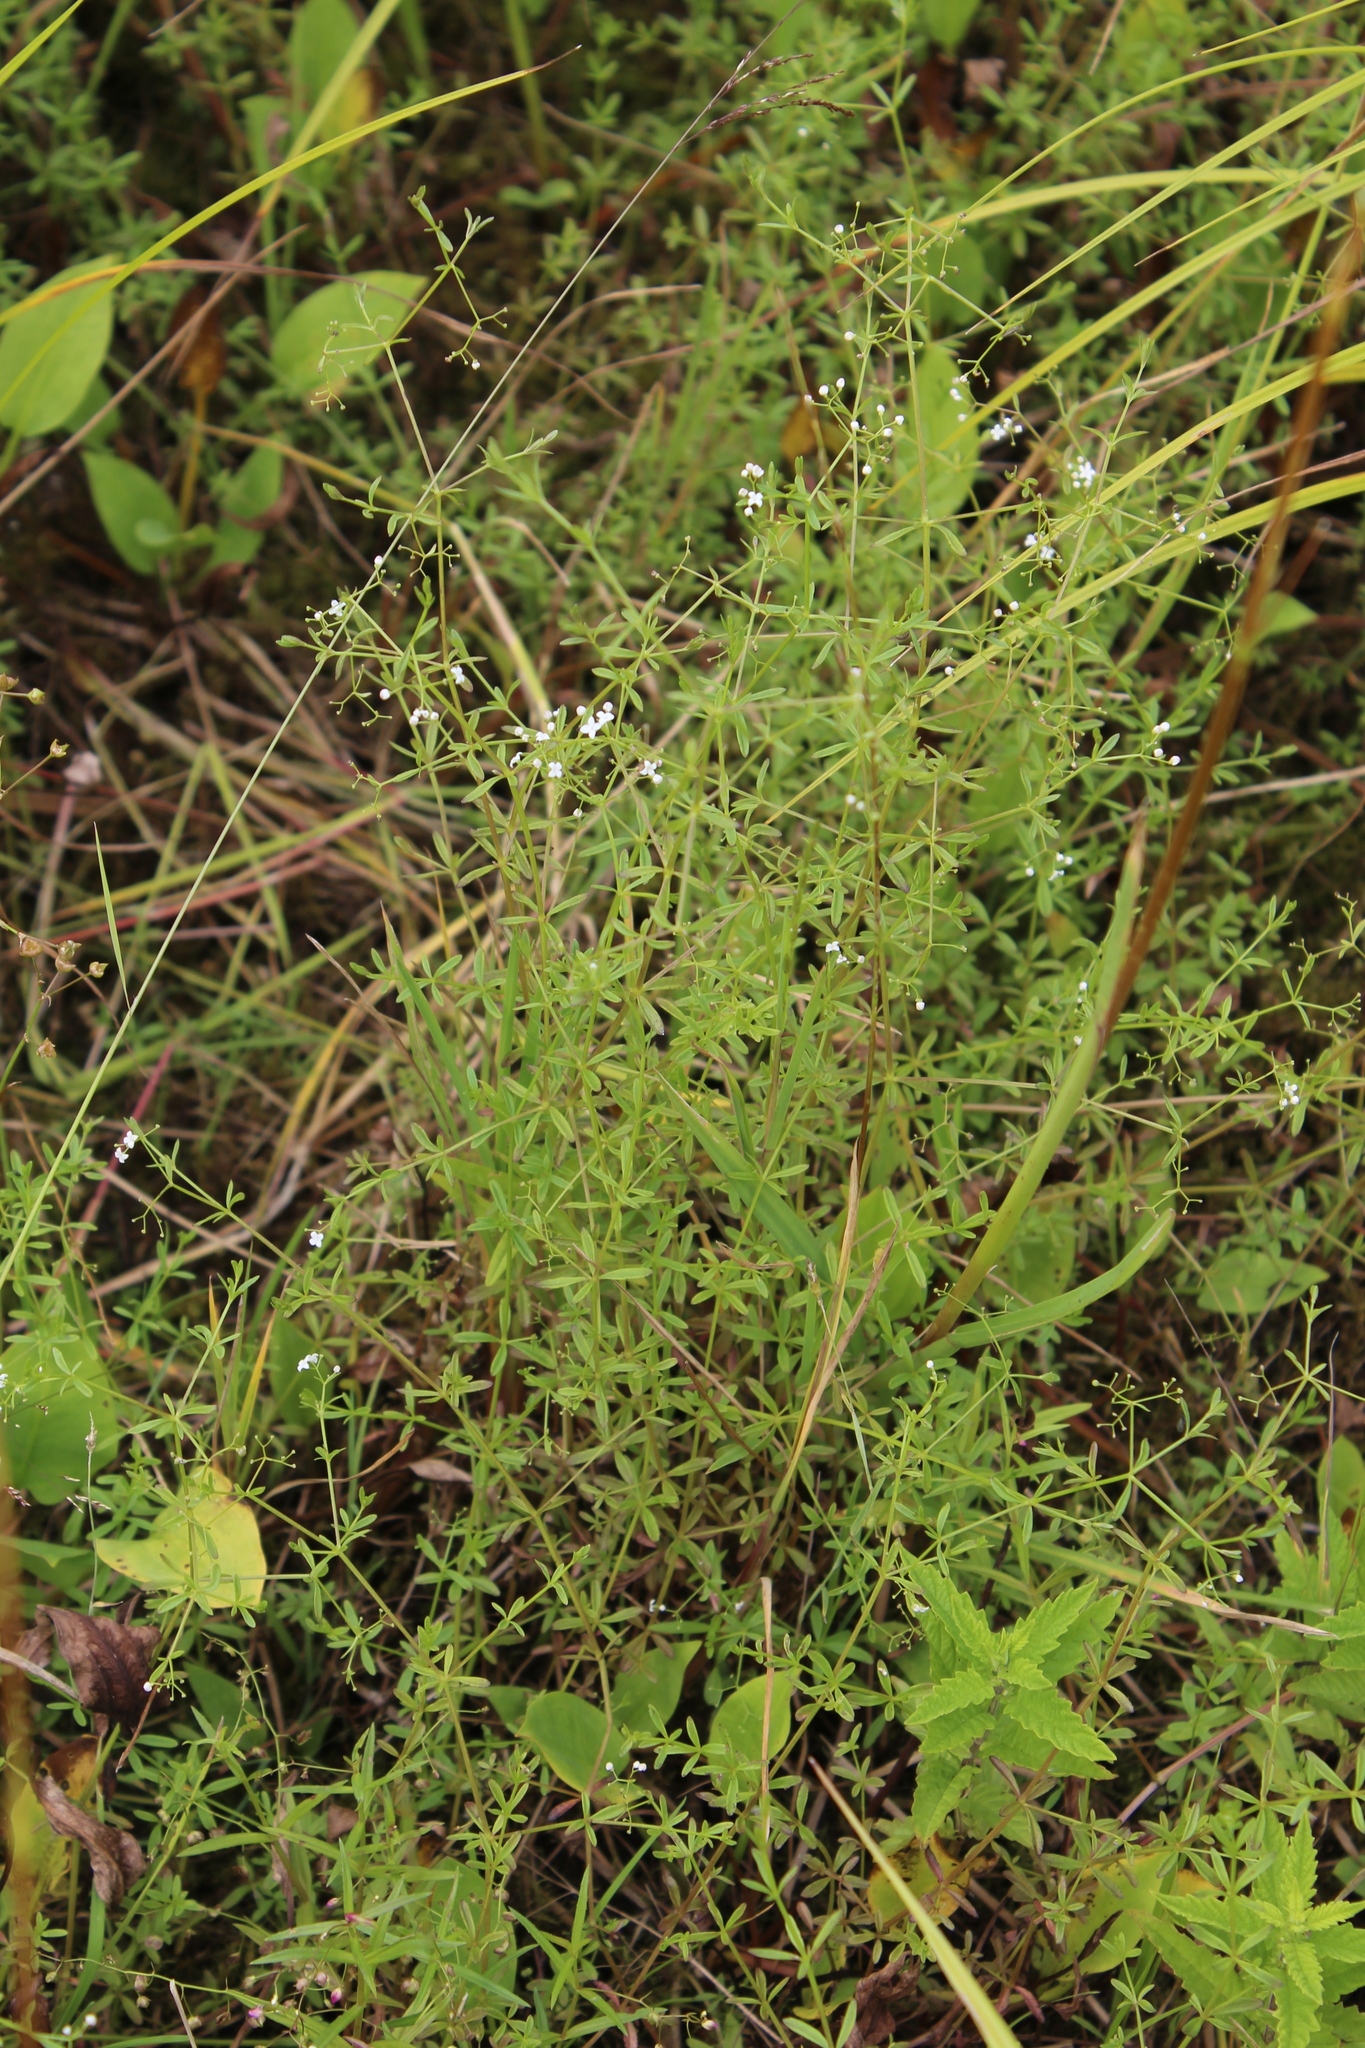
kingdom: Plantae
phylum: Tracheophyta
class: Magnoliopsida
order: Gentianales
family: Rubiaceae
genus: Galium
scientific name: Galium palustre
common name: Common marsh-bedstraw
